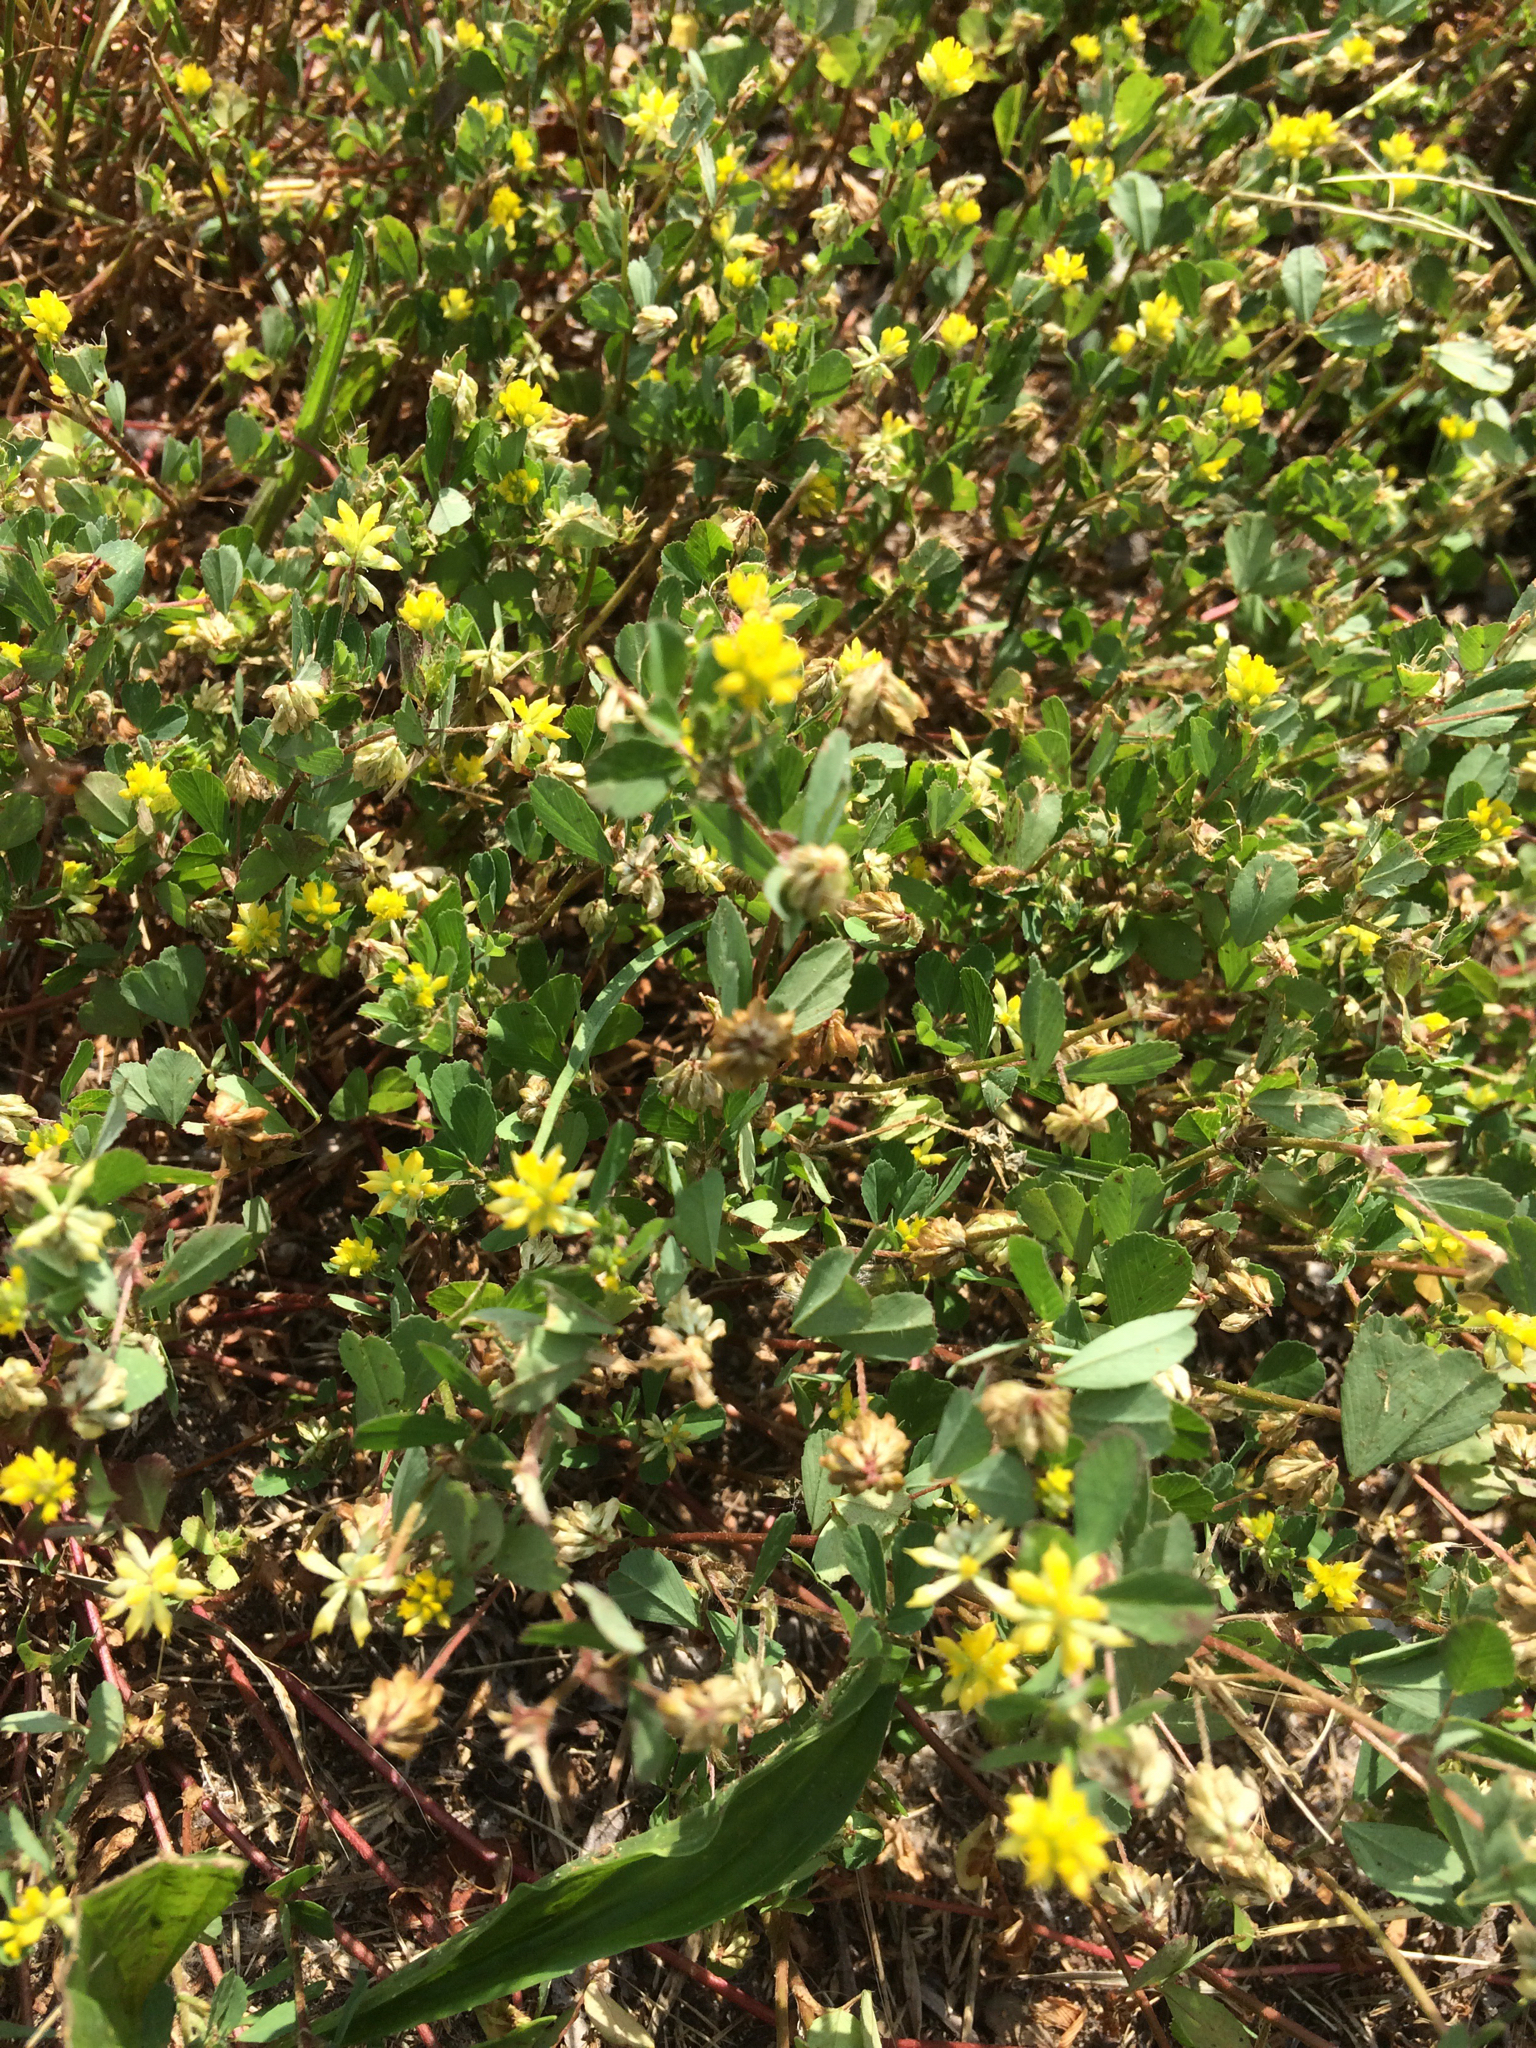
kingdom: Plantae
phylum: Tracheophyta
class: Magnoliopsida
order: Fabales
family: Fabaceae
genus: Trifolium
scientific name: Trifolium dubium
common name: Suckling clover
